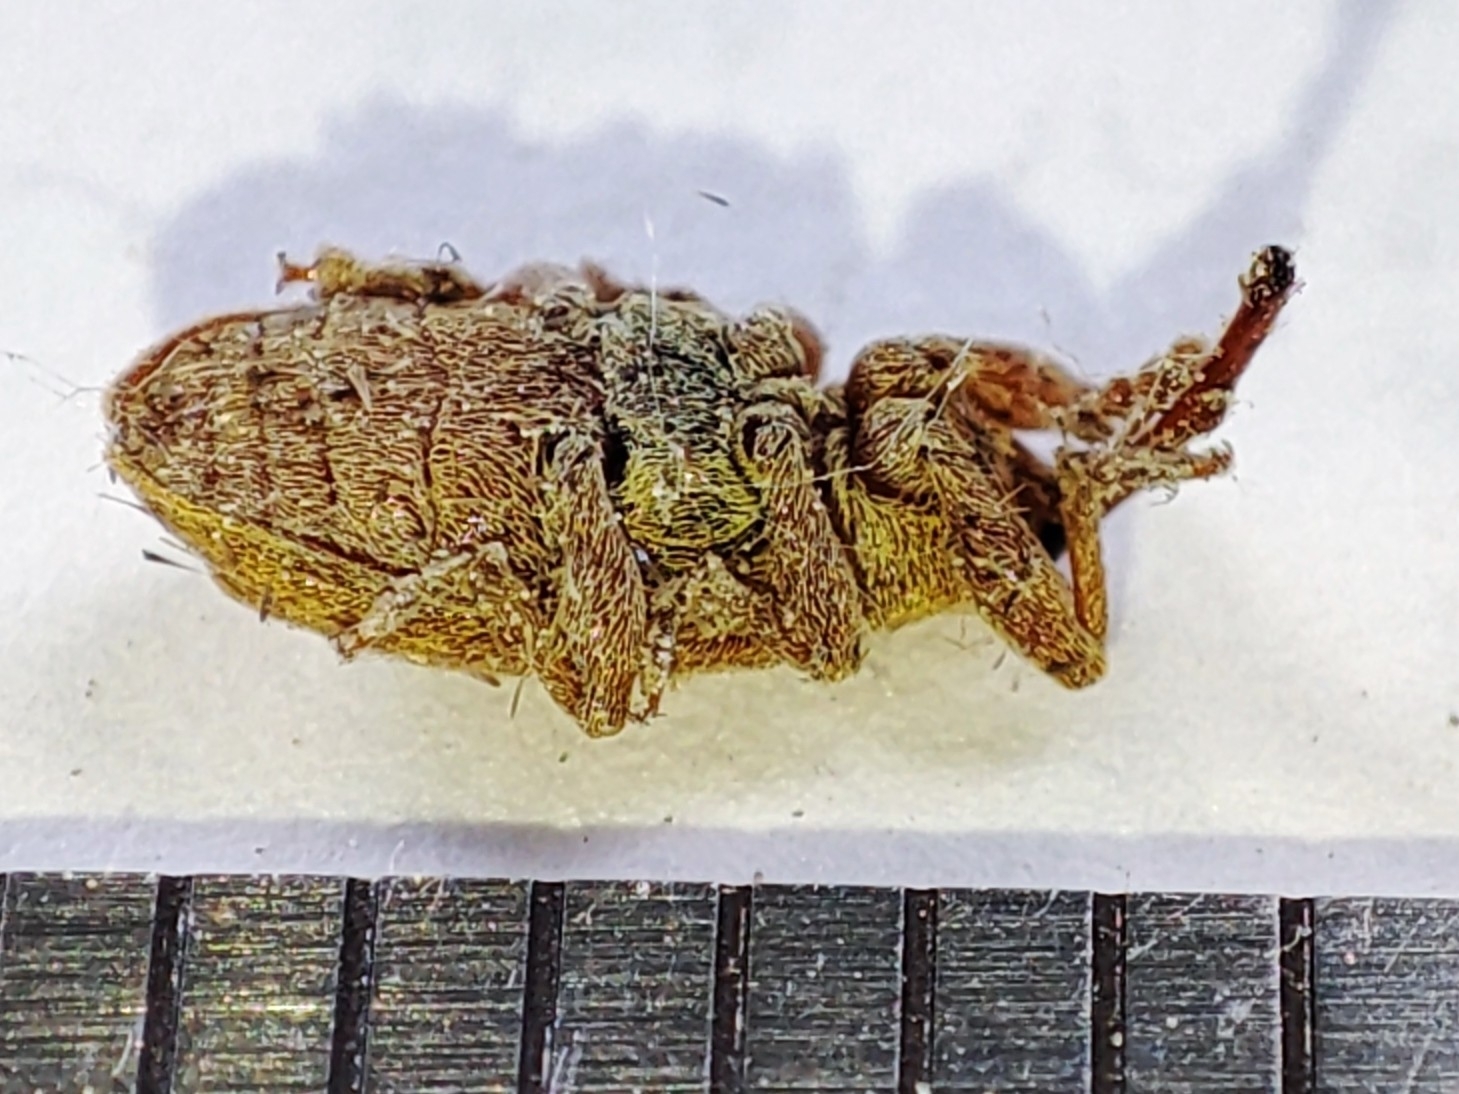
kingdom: Animalia
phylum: Arthropoda
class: Insecta
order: Coleoptera
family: Brachyceridae
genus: Erirhinus
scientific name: Erirhinus filirostris
